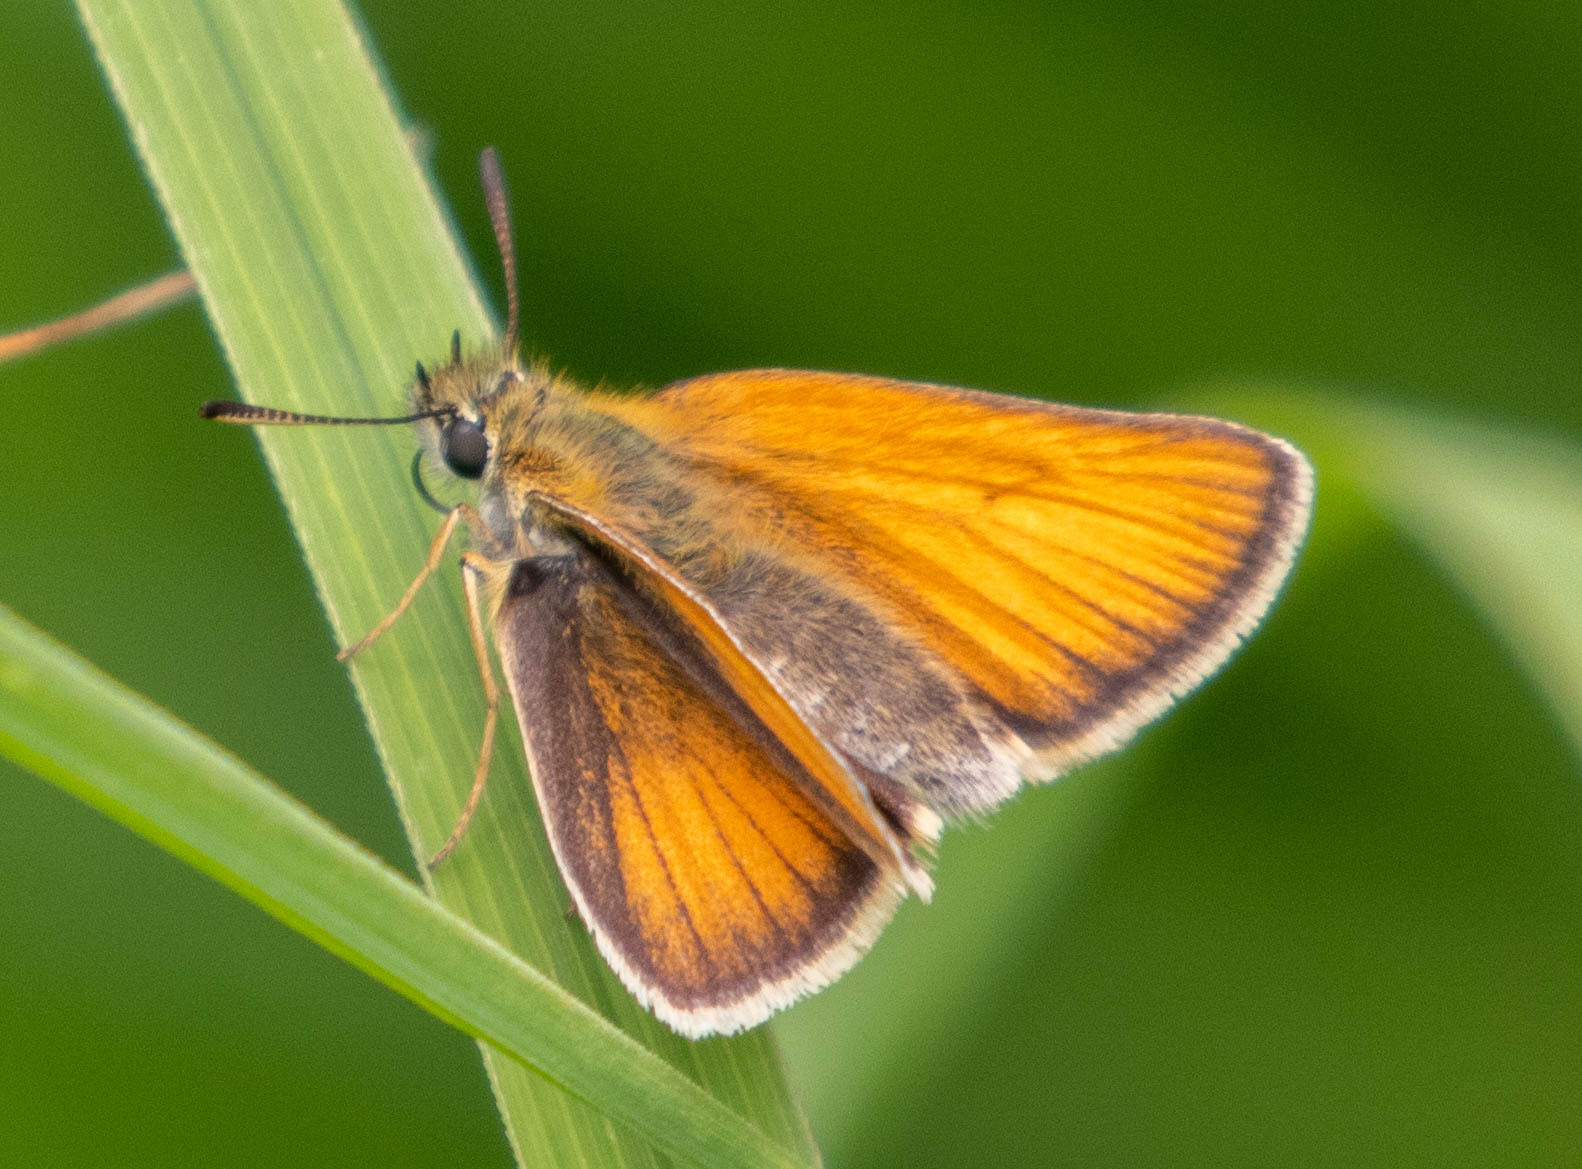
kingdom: Animalia
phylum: Arthropoda
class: Insecta
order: Lepidoptera
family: Hesperiidae
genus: Thymelicus
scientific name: Thymelicus lineola
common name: Essex skipper
